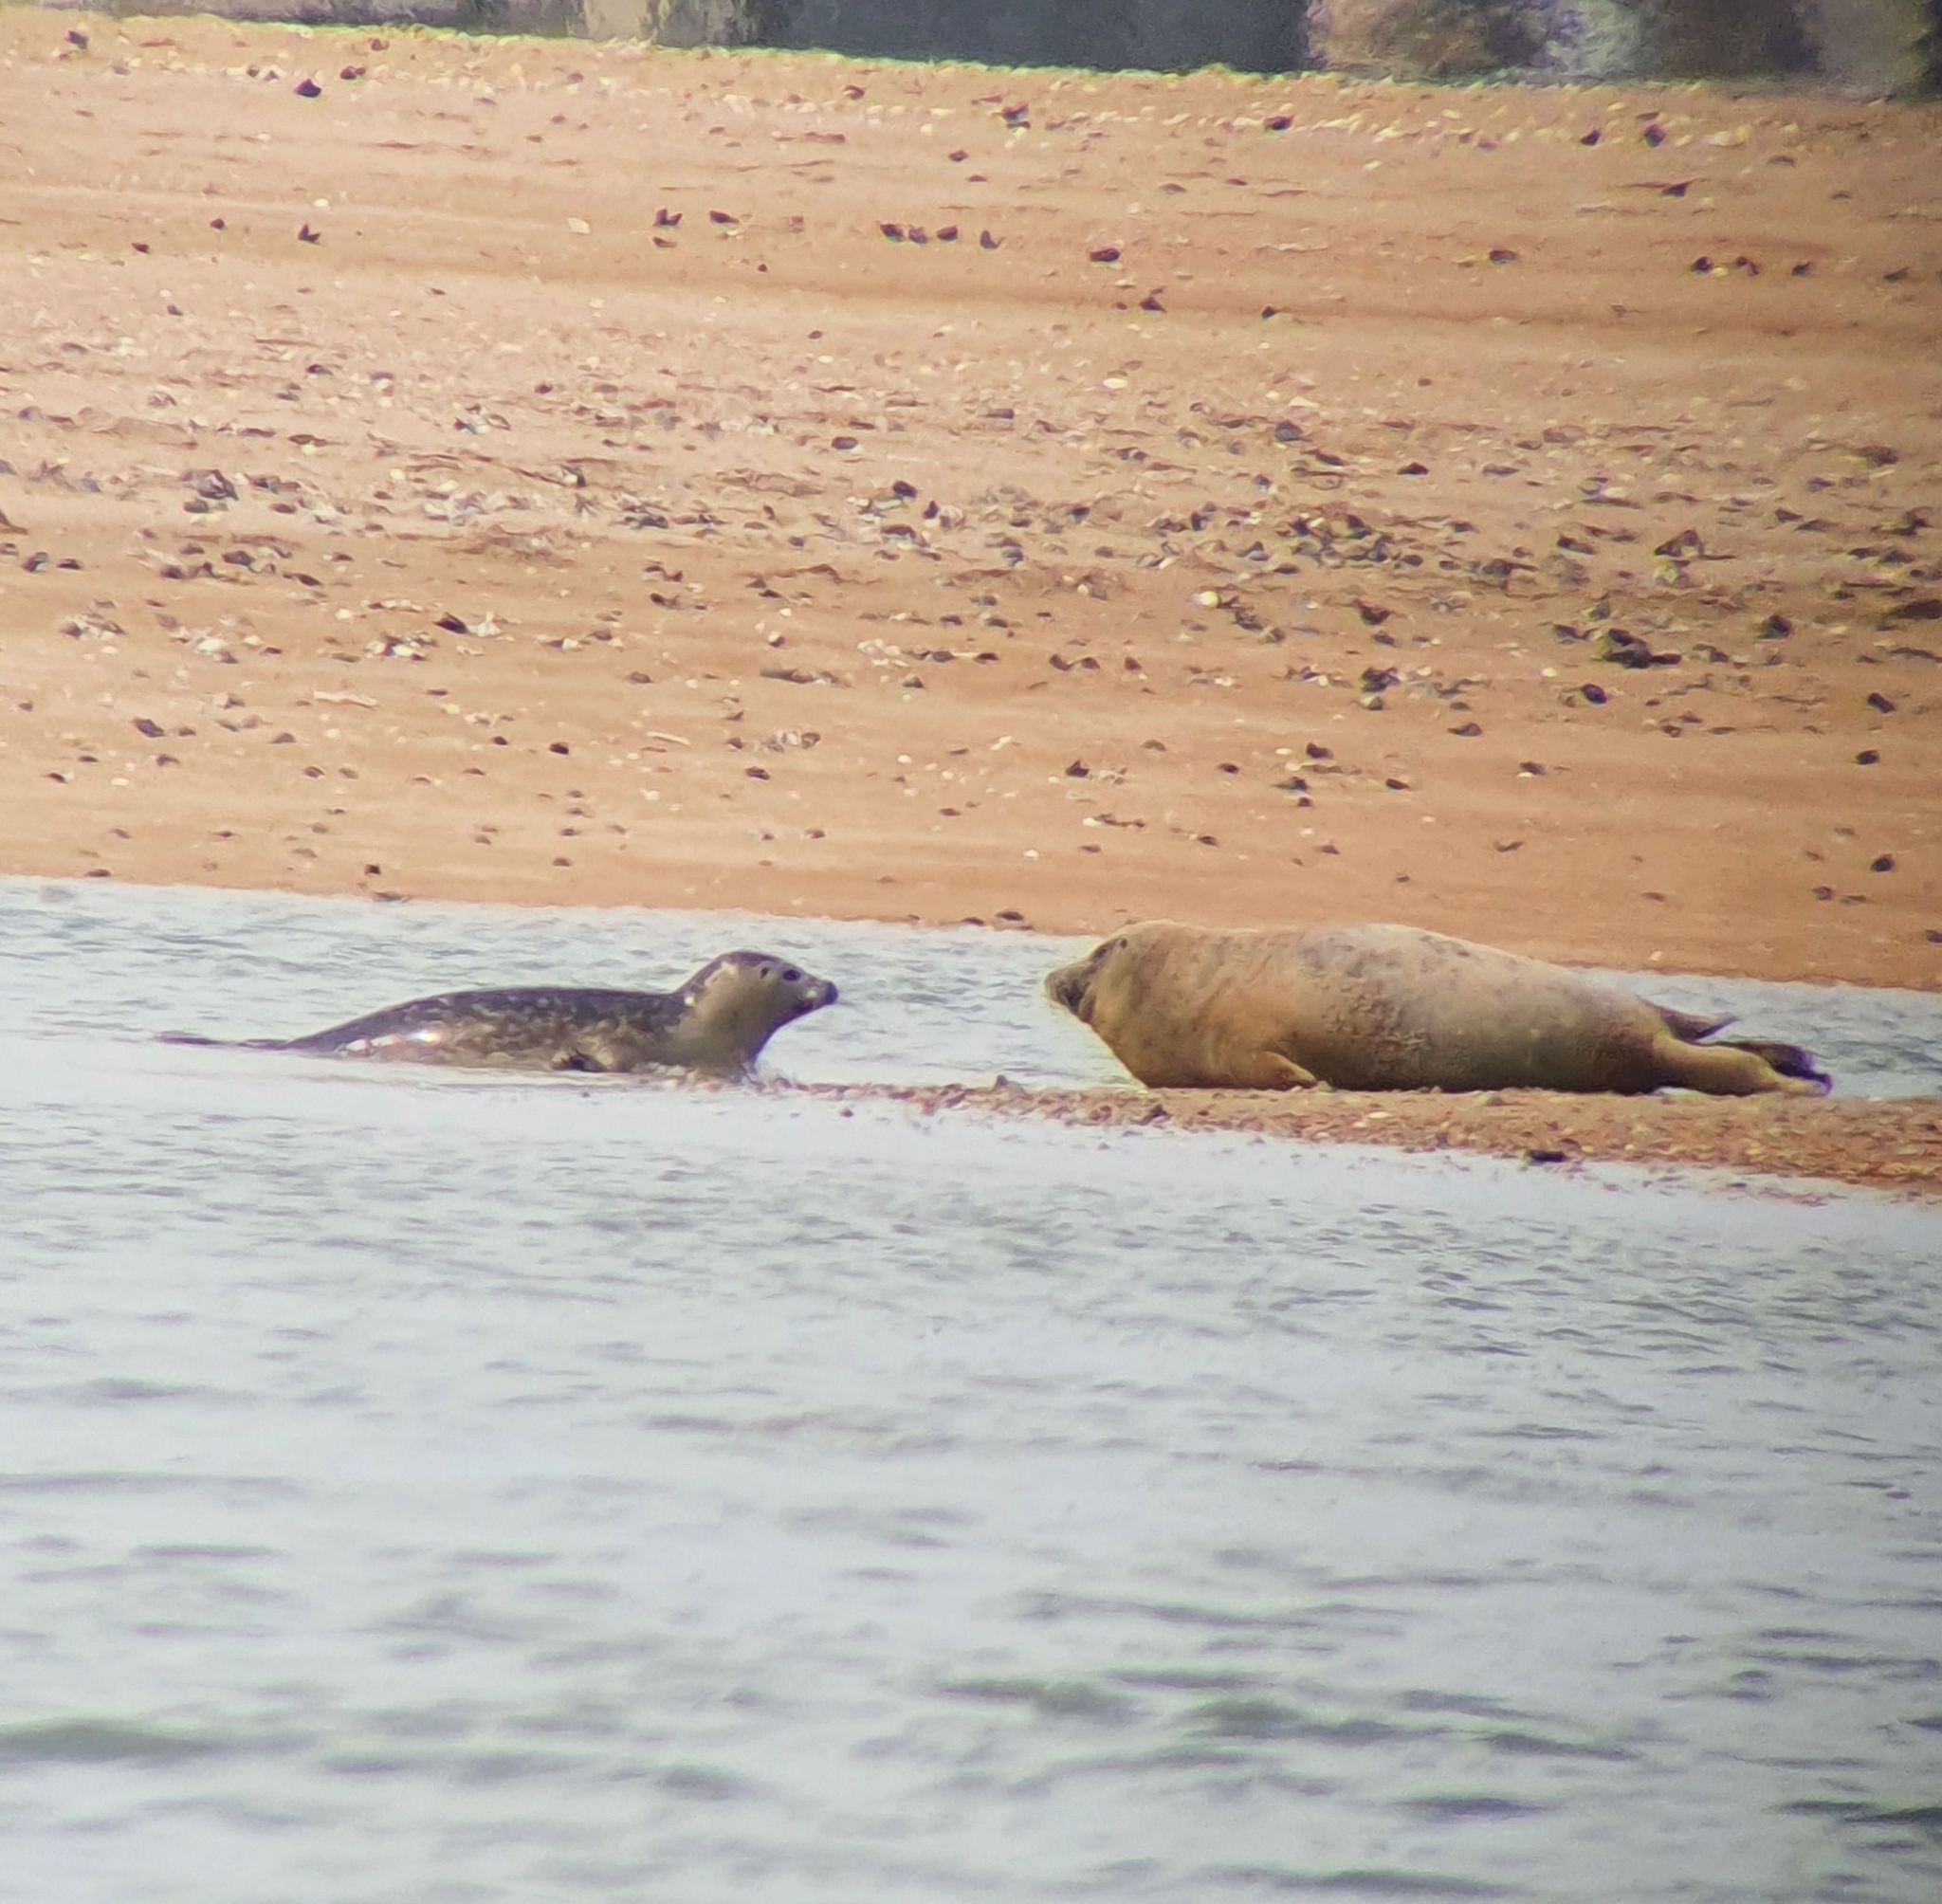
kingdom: Animalia
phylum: Chordata
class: Mammalia
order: Carnivora
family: Phocidae
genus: Phoca
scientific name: Phoca vitulina
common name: Harbor seal
